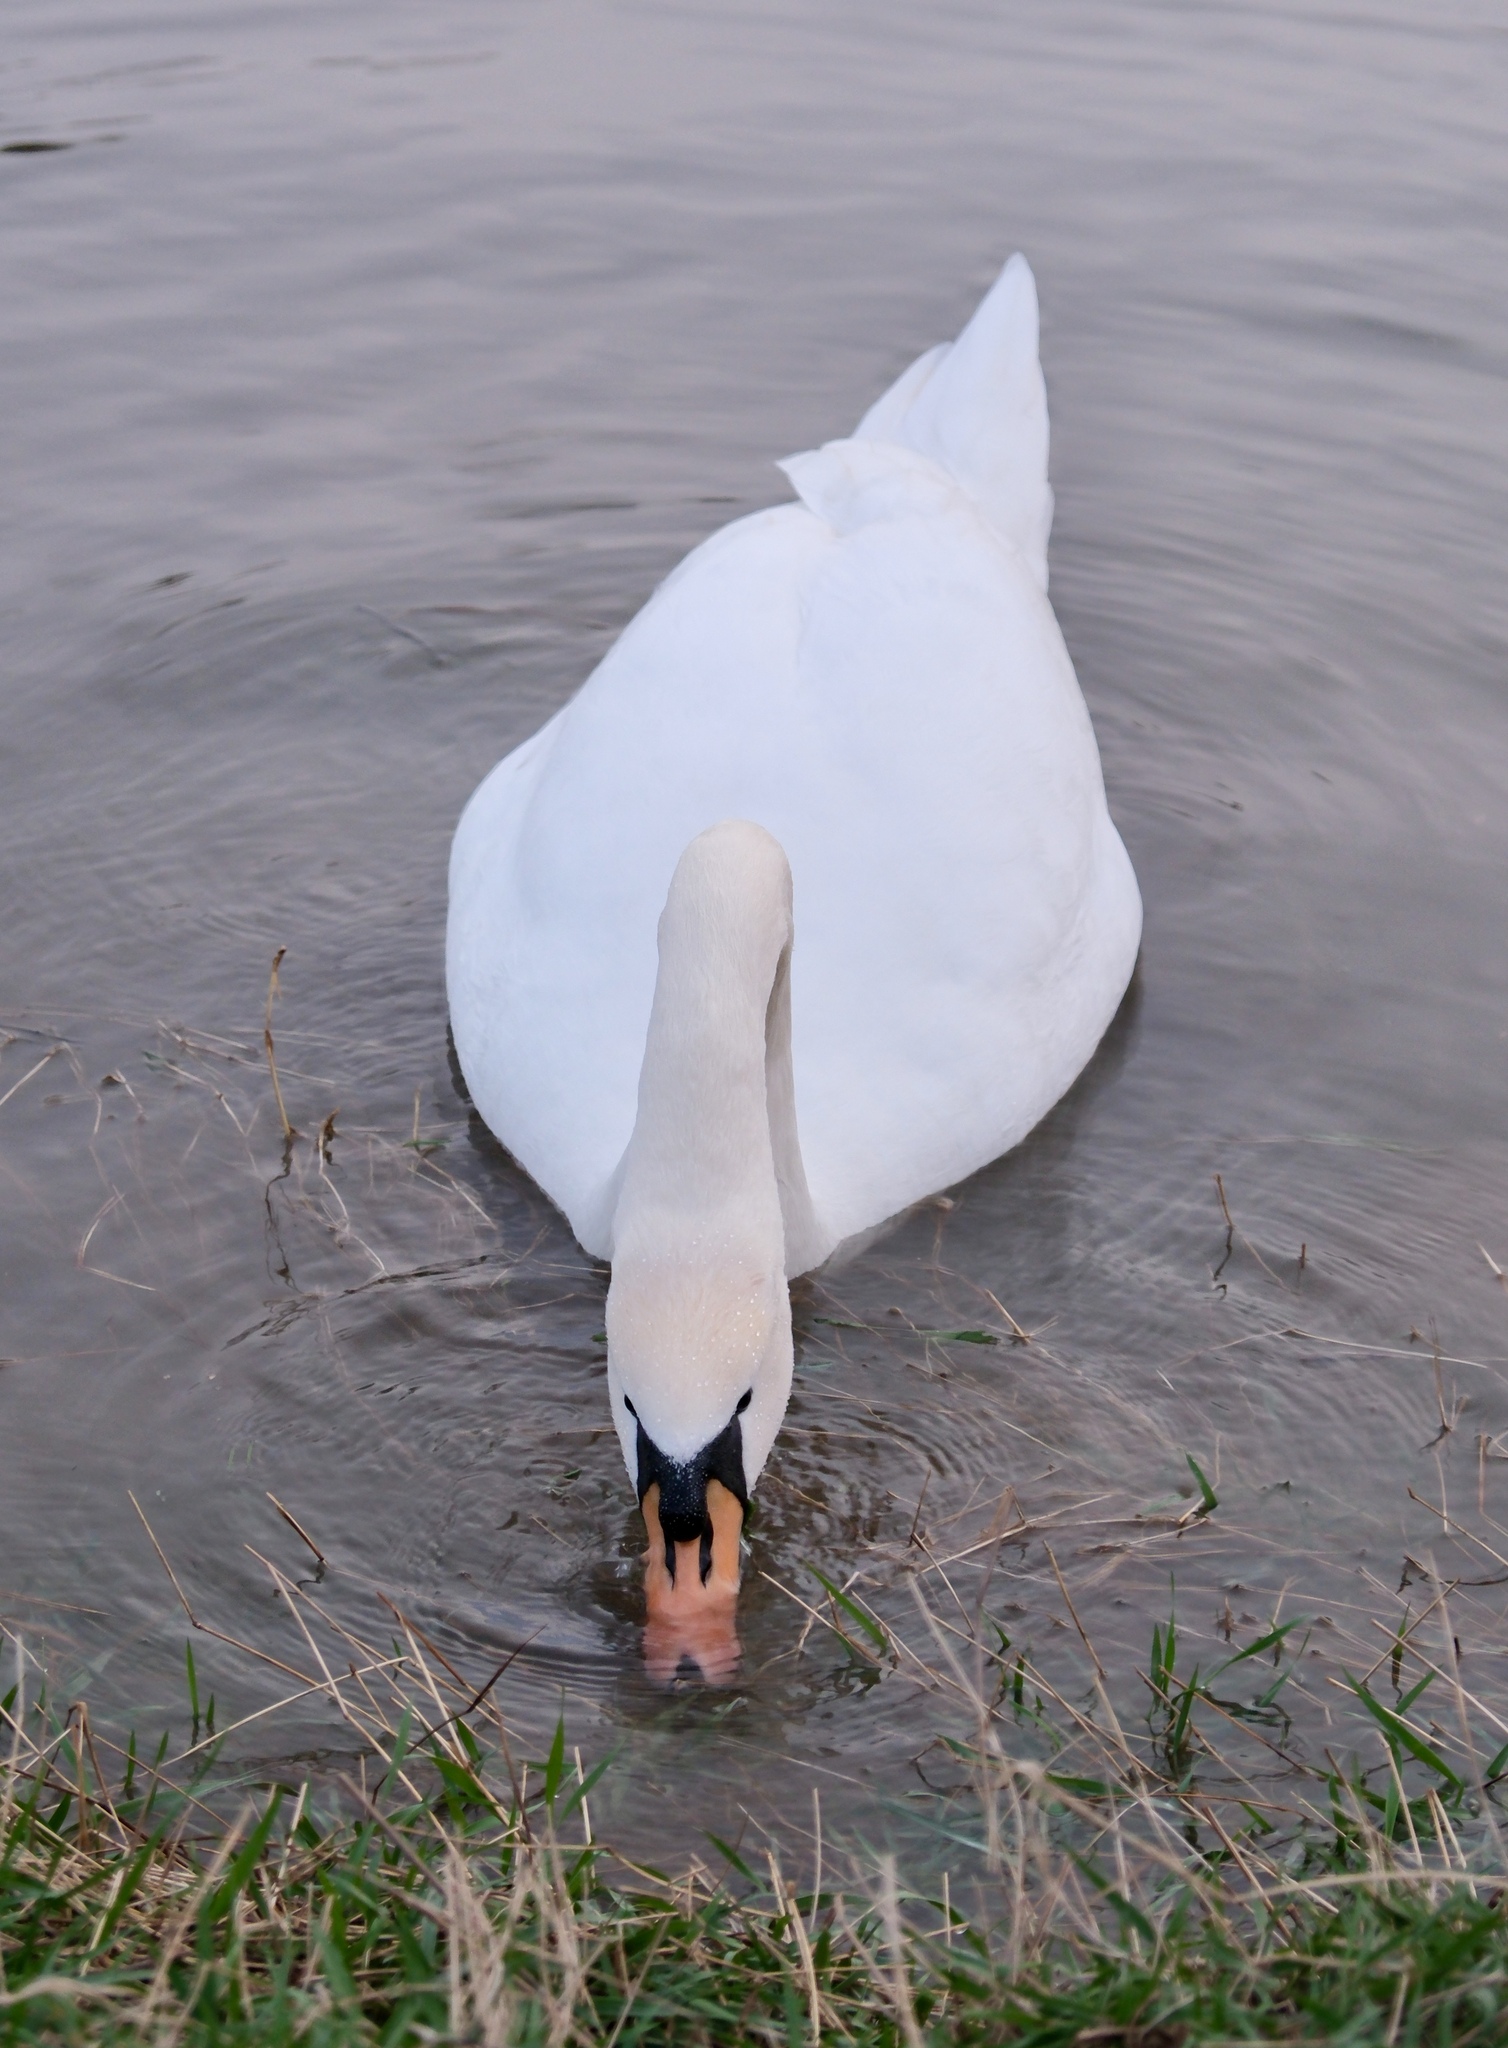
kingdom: Animalia
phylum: Chordata
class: Aves
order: Anseriformes
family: Anatidae
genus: Cygnus
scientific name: Cygnus olor
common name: Mute swan
